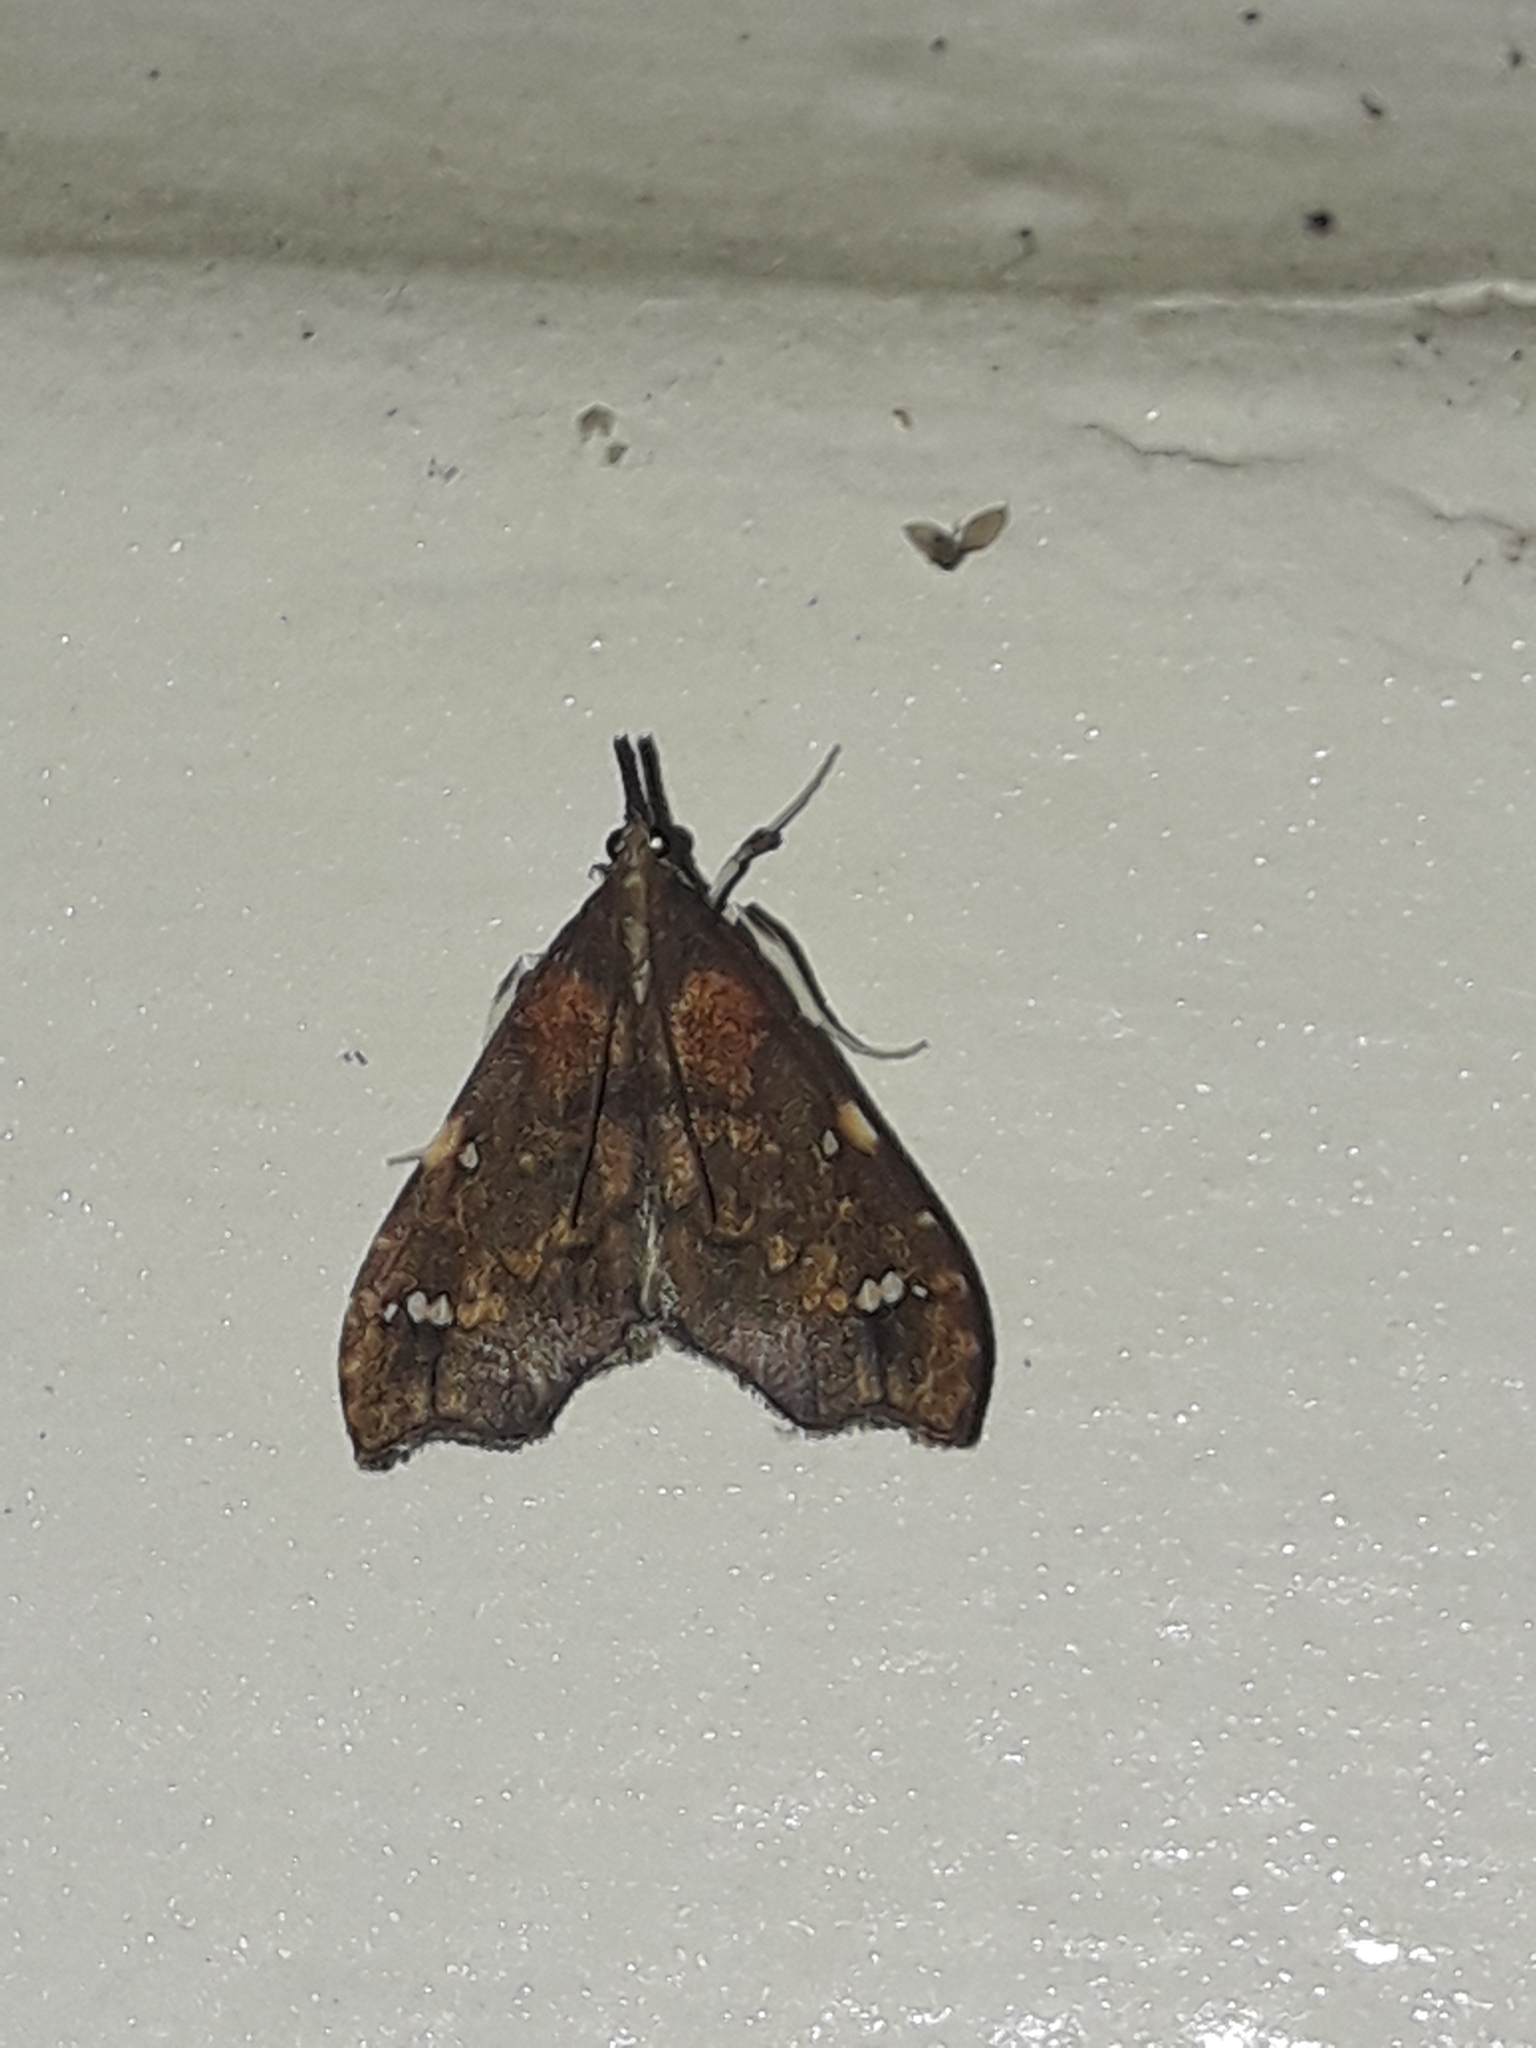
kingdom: Animalia
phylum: Arthropoda
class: Insecta
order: Lepidoptera
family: Crambidae
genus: Deana
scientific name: Deana hybreasalis
